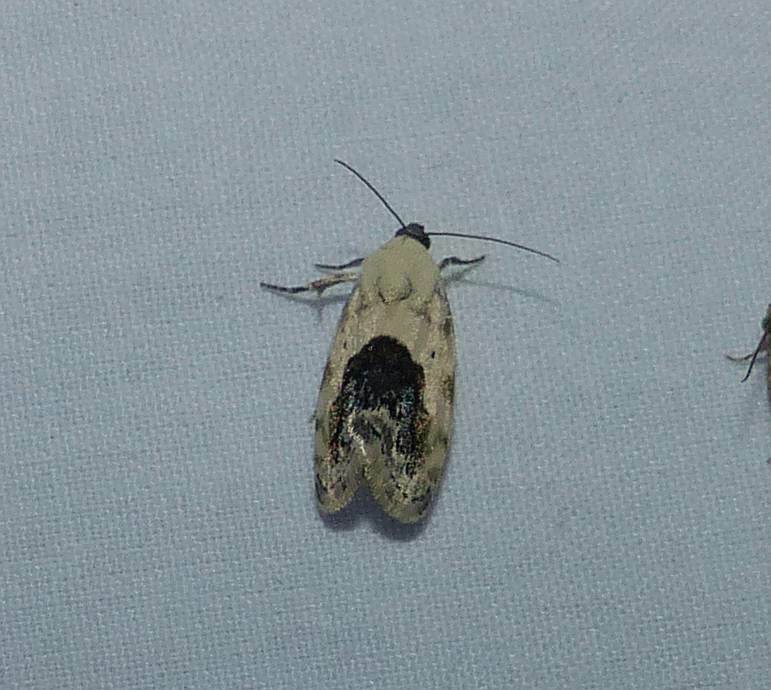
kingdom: Animalia
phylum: Arthropoda
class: Insecta
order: Lepidoptera
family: Noctuidae
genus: Acontia
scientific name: Acontia erastrioides
